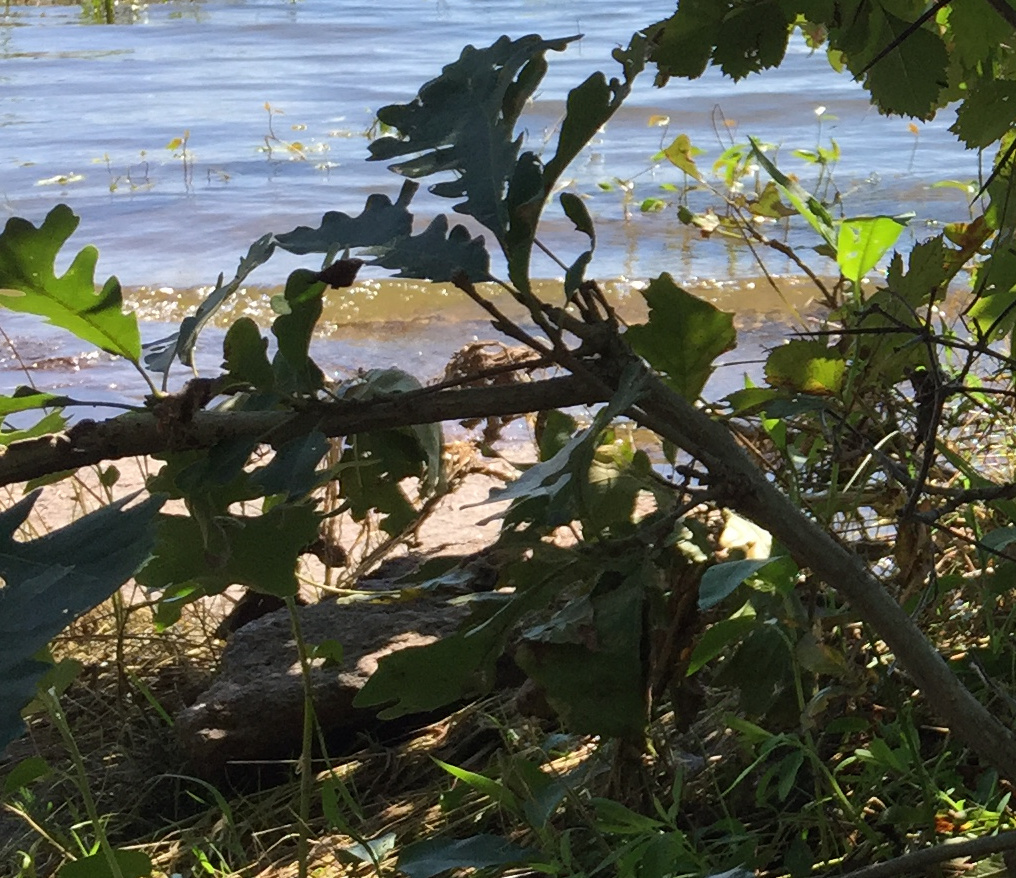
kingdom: Plantae
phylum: Tracheophyta
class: Magnoliopsida
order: Fagales
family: Fagaceae
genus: Quercus
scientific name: Quercus macrocarpa
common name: Bur oak
